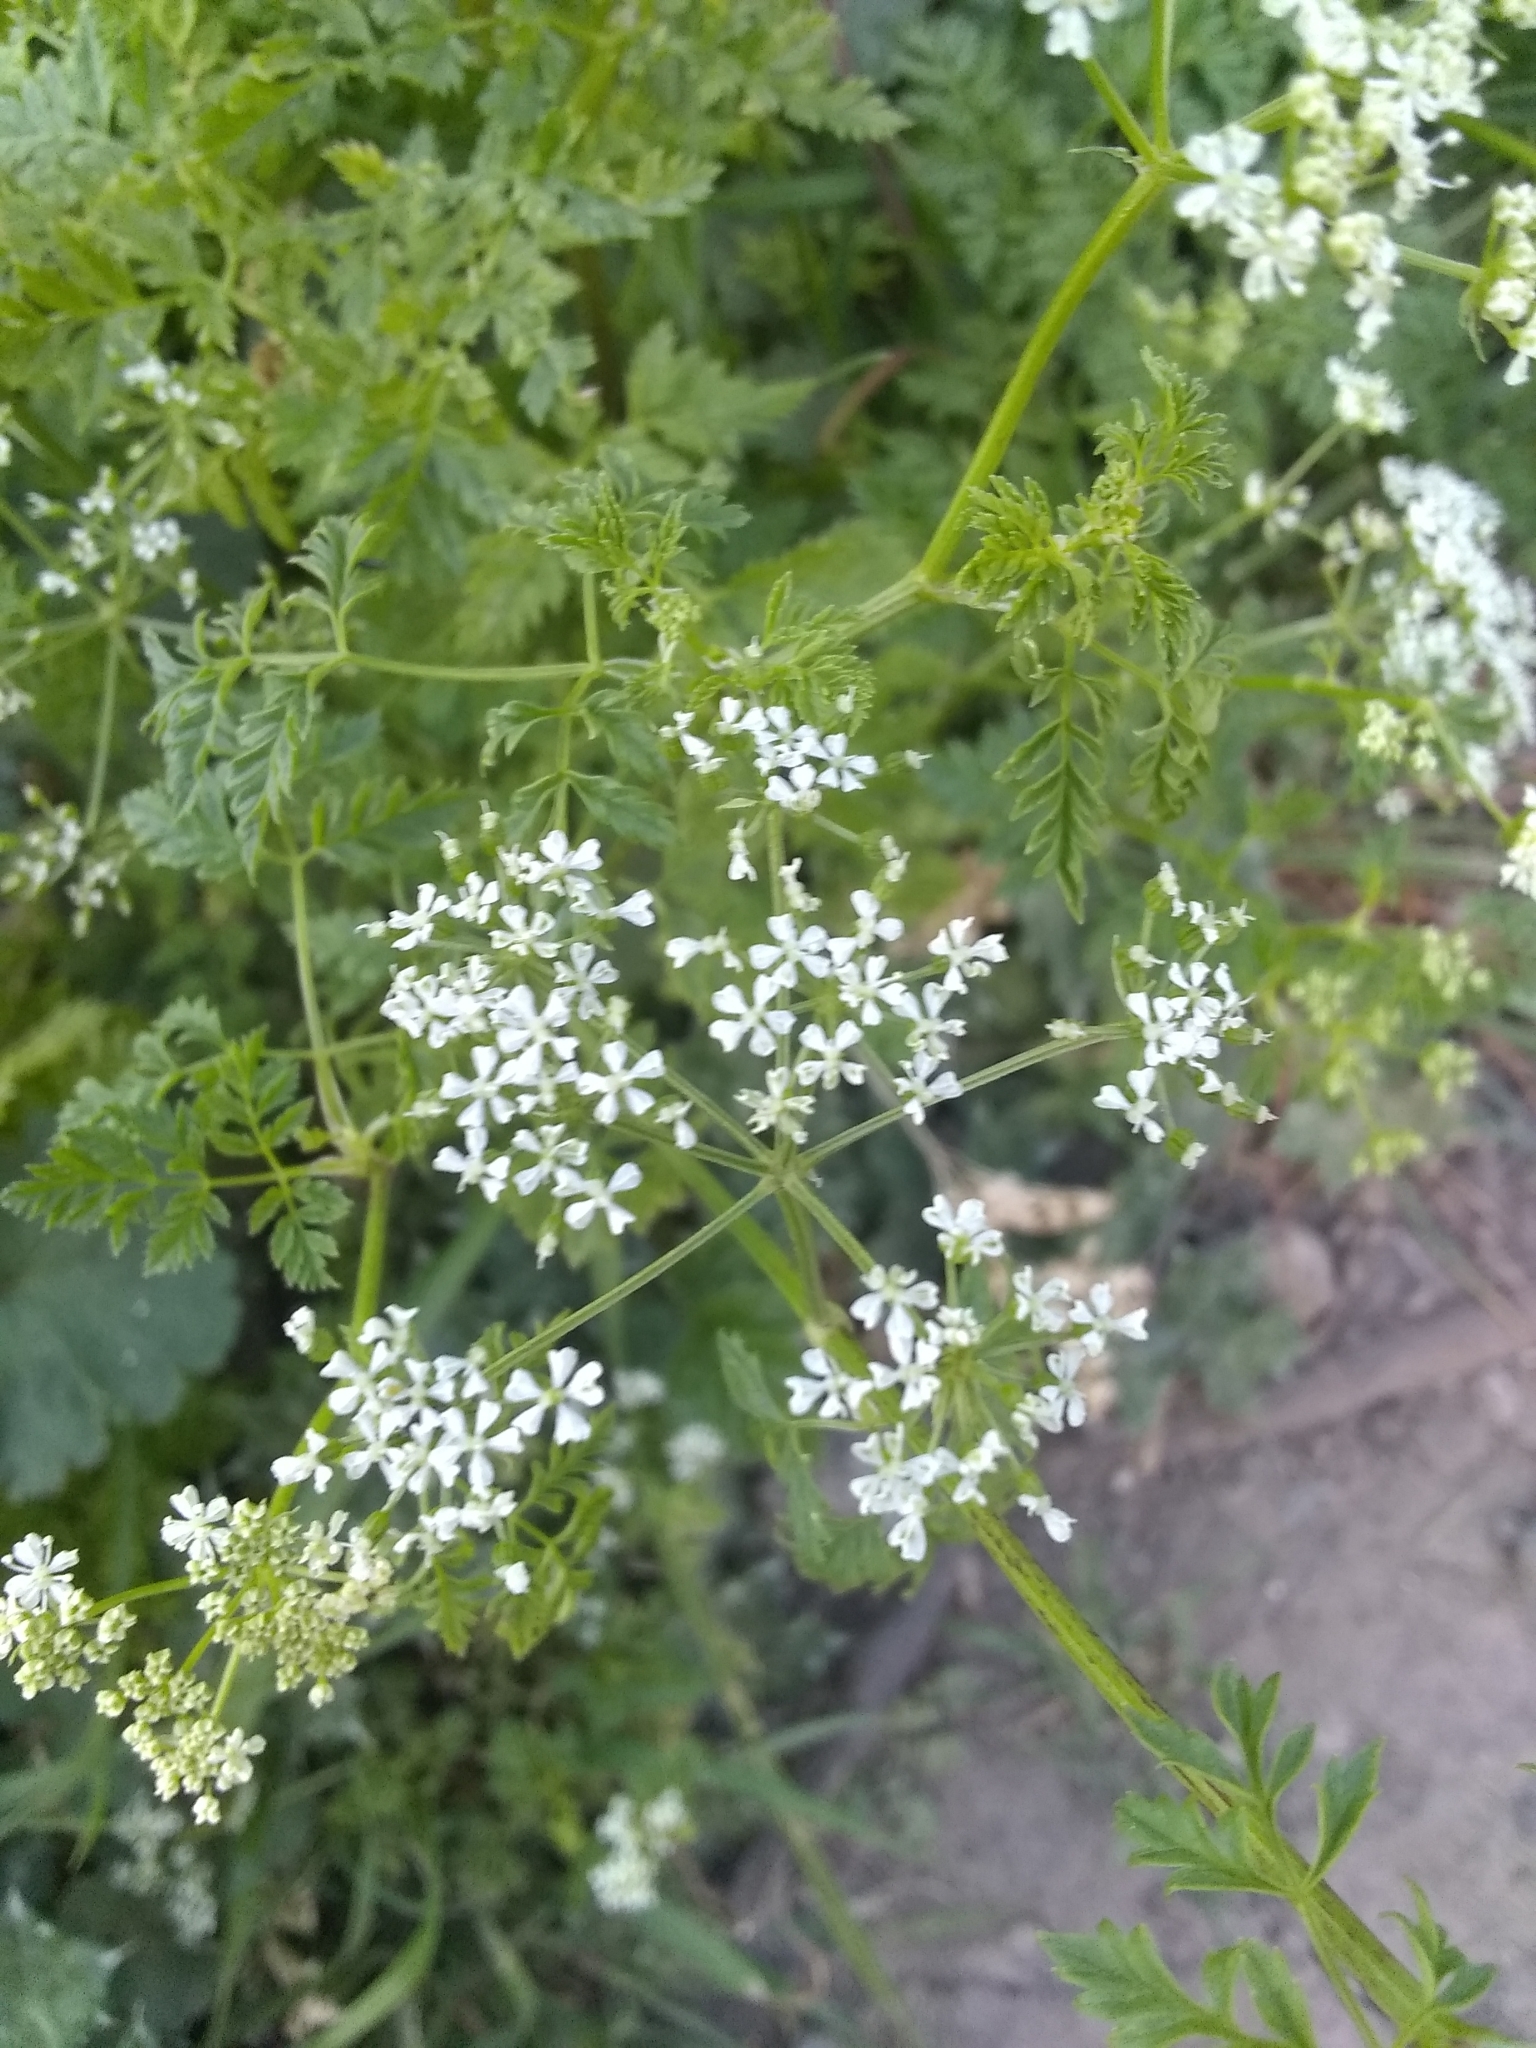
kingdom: Plantae
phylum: Tracheophyta
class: Magnoliopsida
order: Apiales
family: Apiaceae
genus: Conium
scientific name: Conium maculatum
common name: Hemlock
